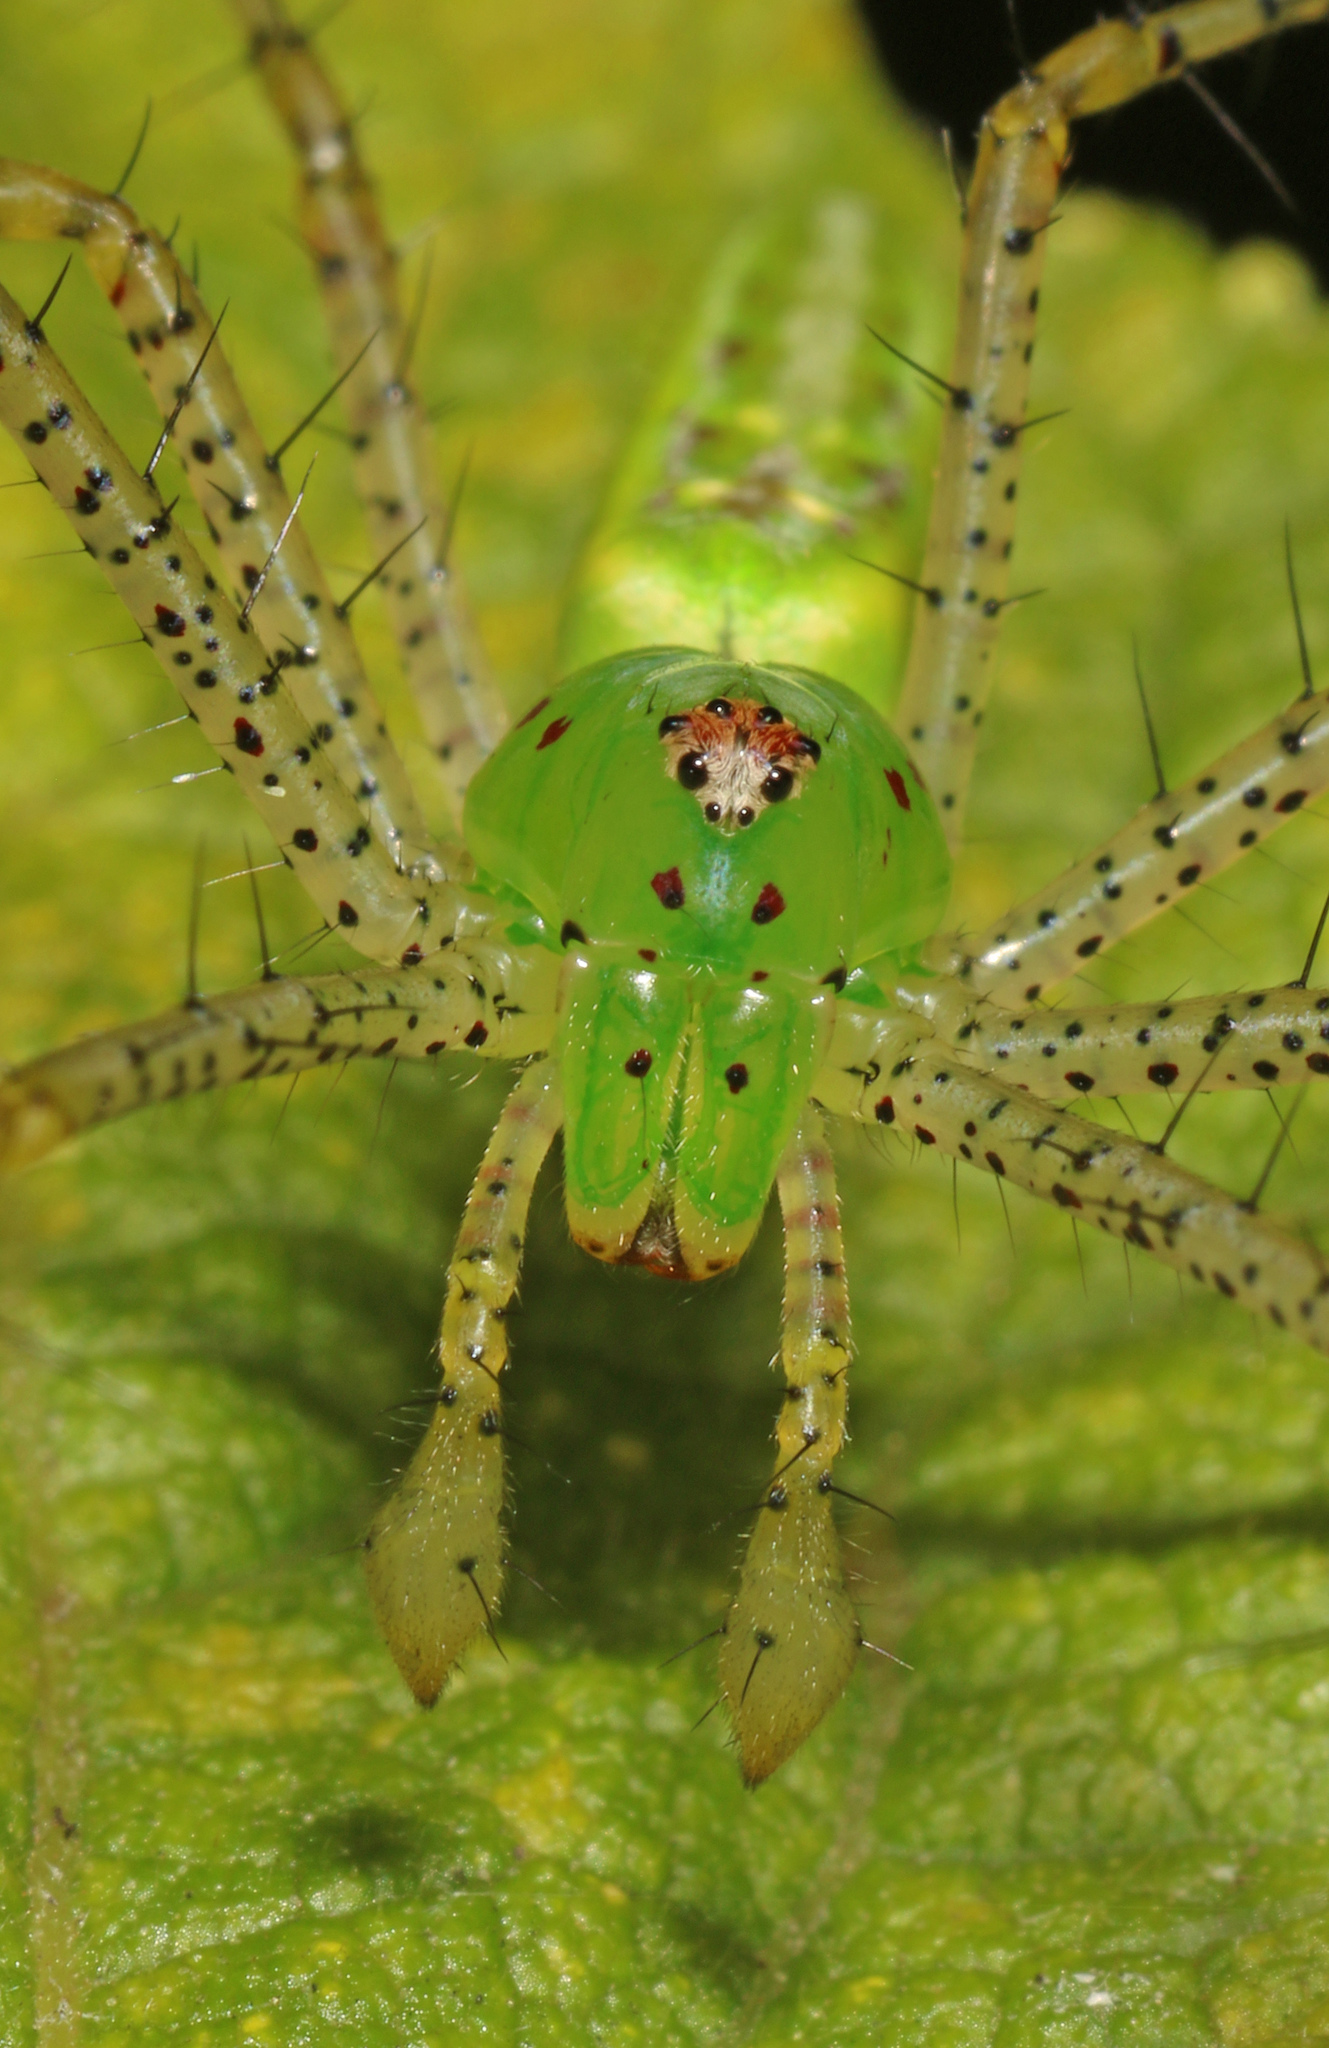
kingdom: Animalia
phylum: Arthropoda
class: Arachnida
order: Araneae
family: Oxyopidae
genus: Peucetia
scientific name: Peucetia viridans
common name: Lynx spiders
